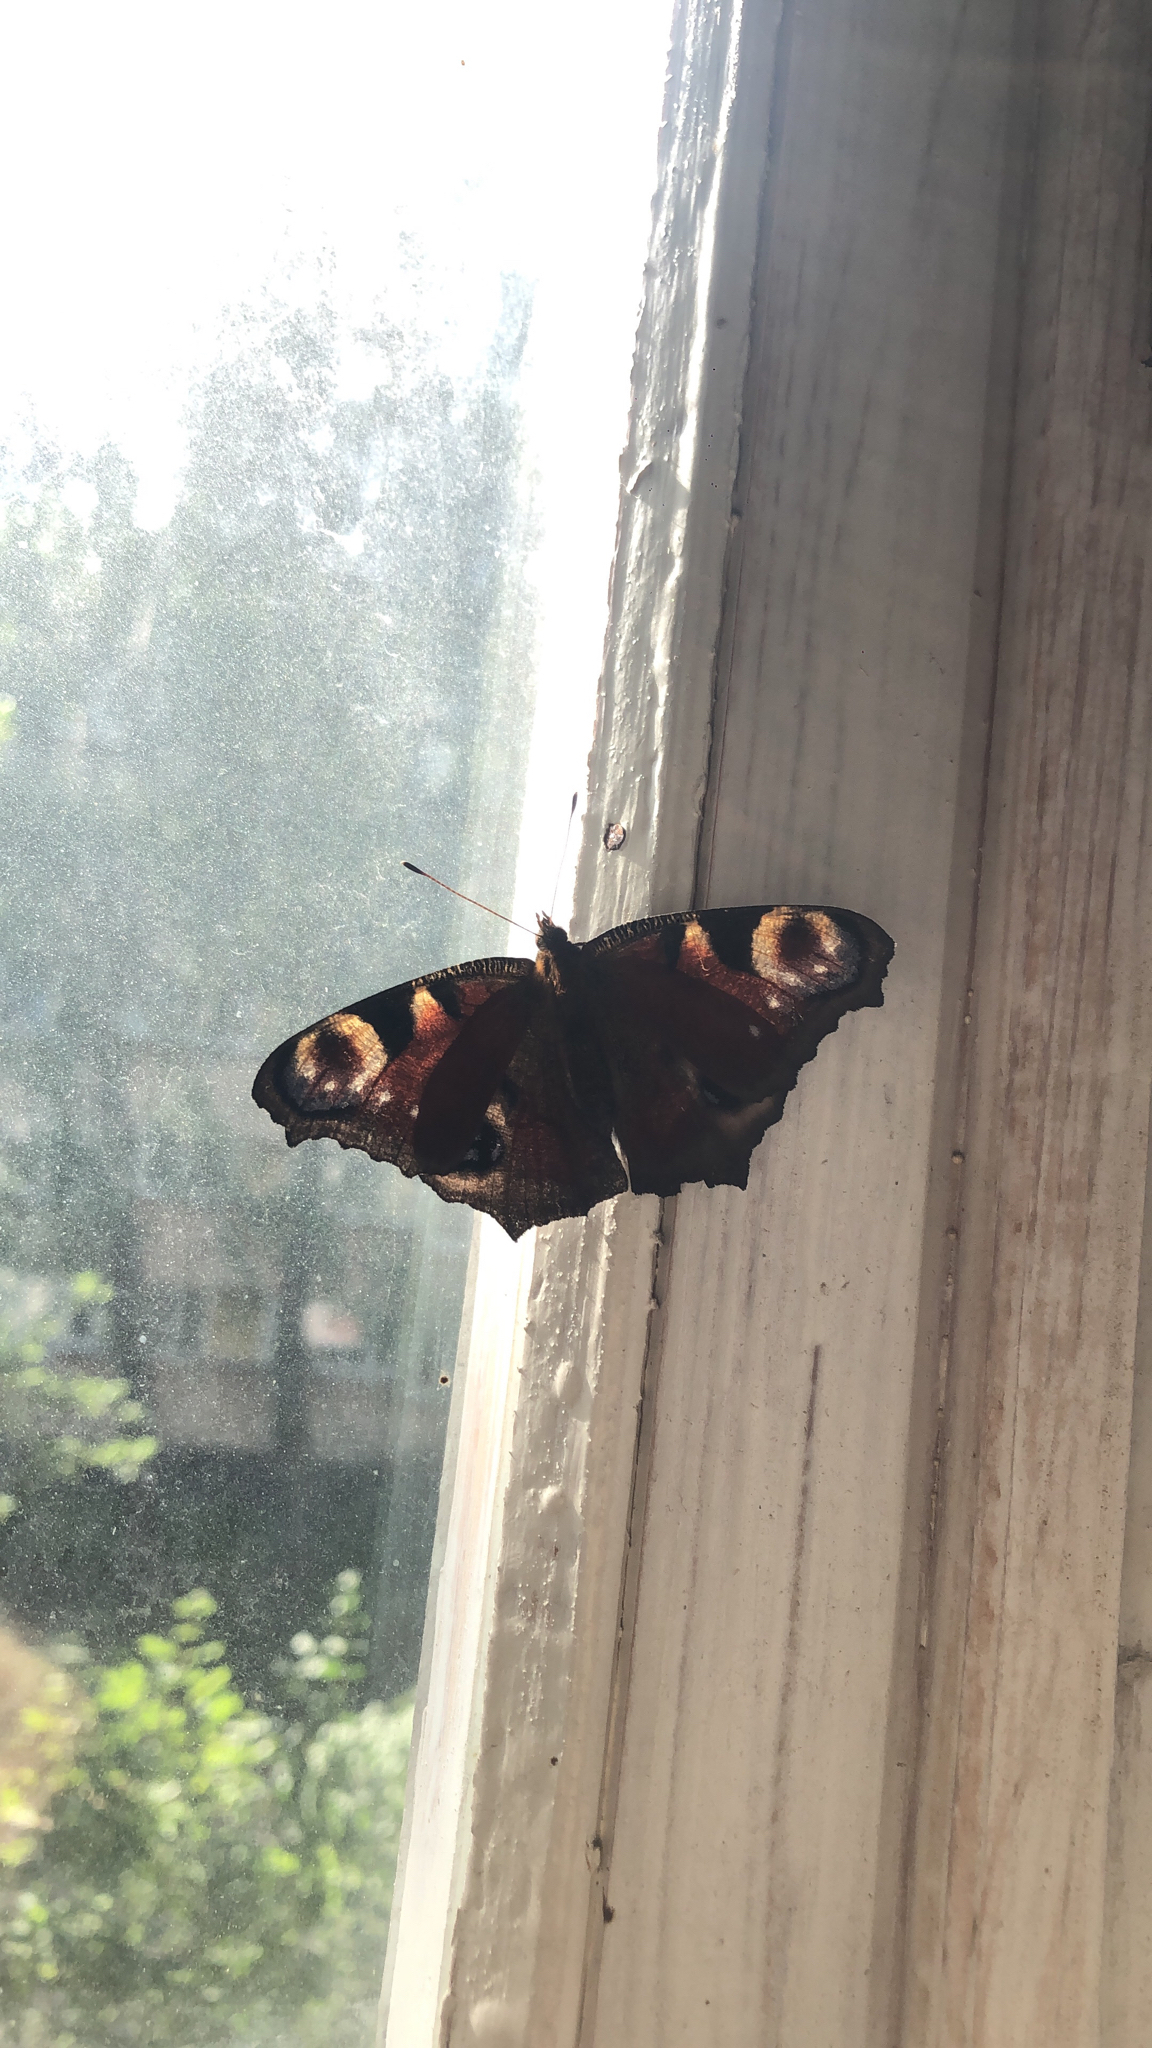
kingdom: Animalia
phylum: Arthropoda
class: Insecta
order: Lepidoptera
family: Nymphalidae
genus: Aglais
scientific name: Aglais io
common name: Peacock
